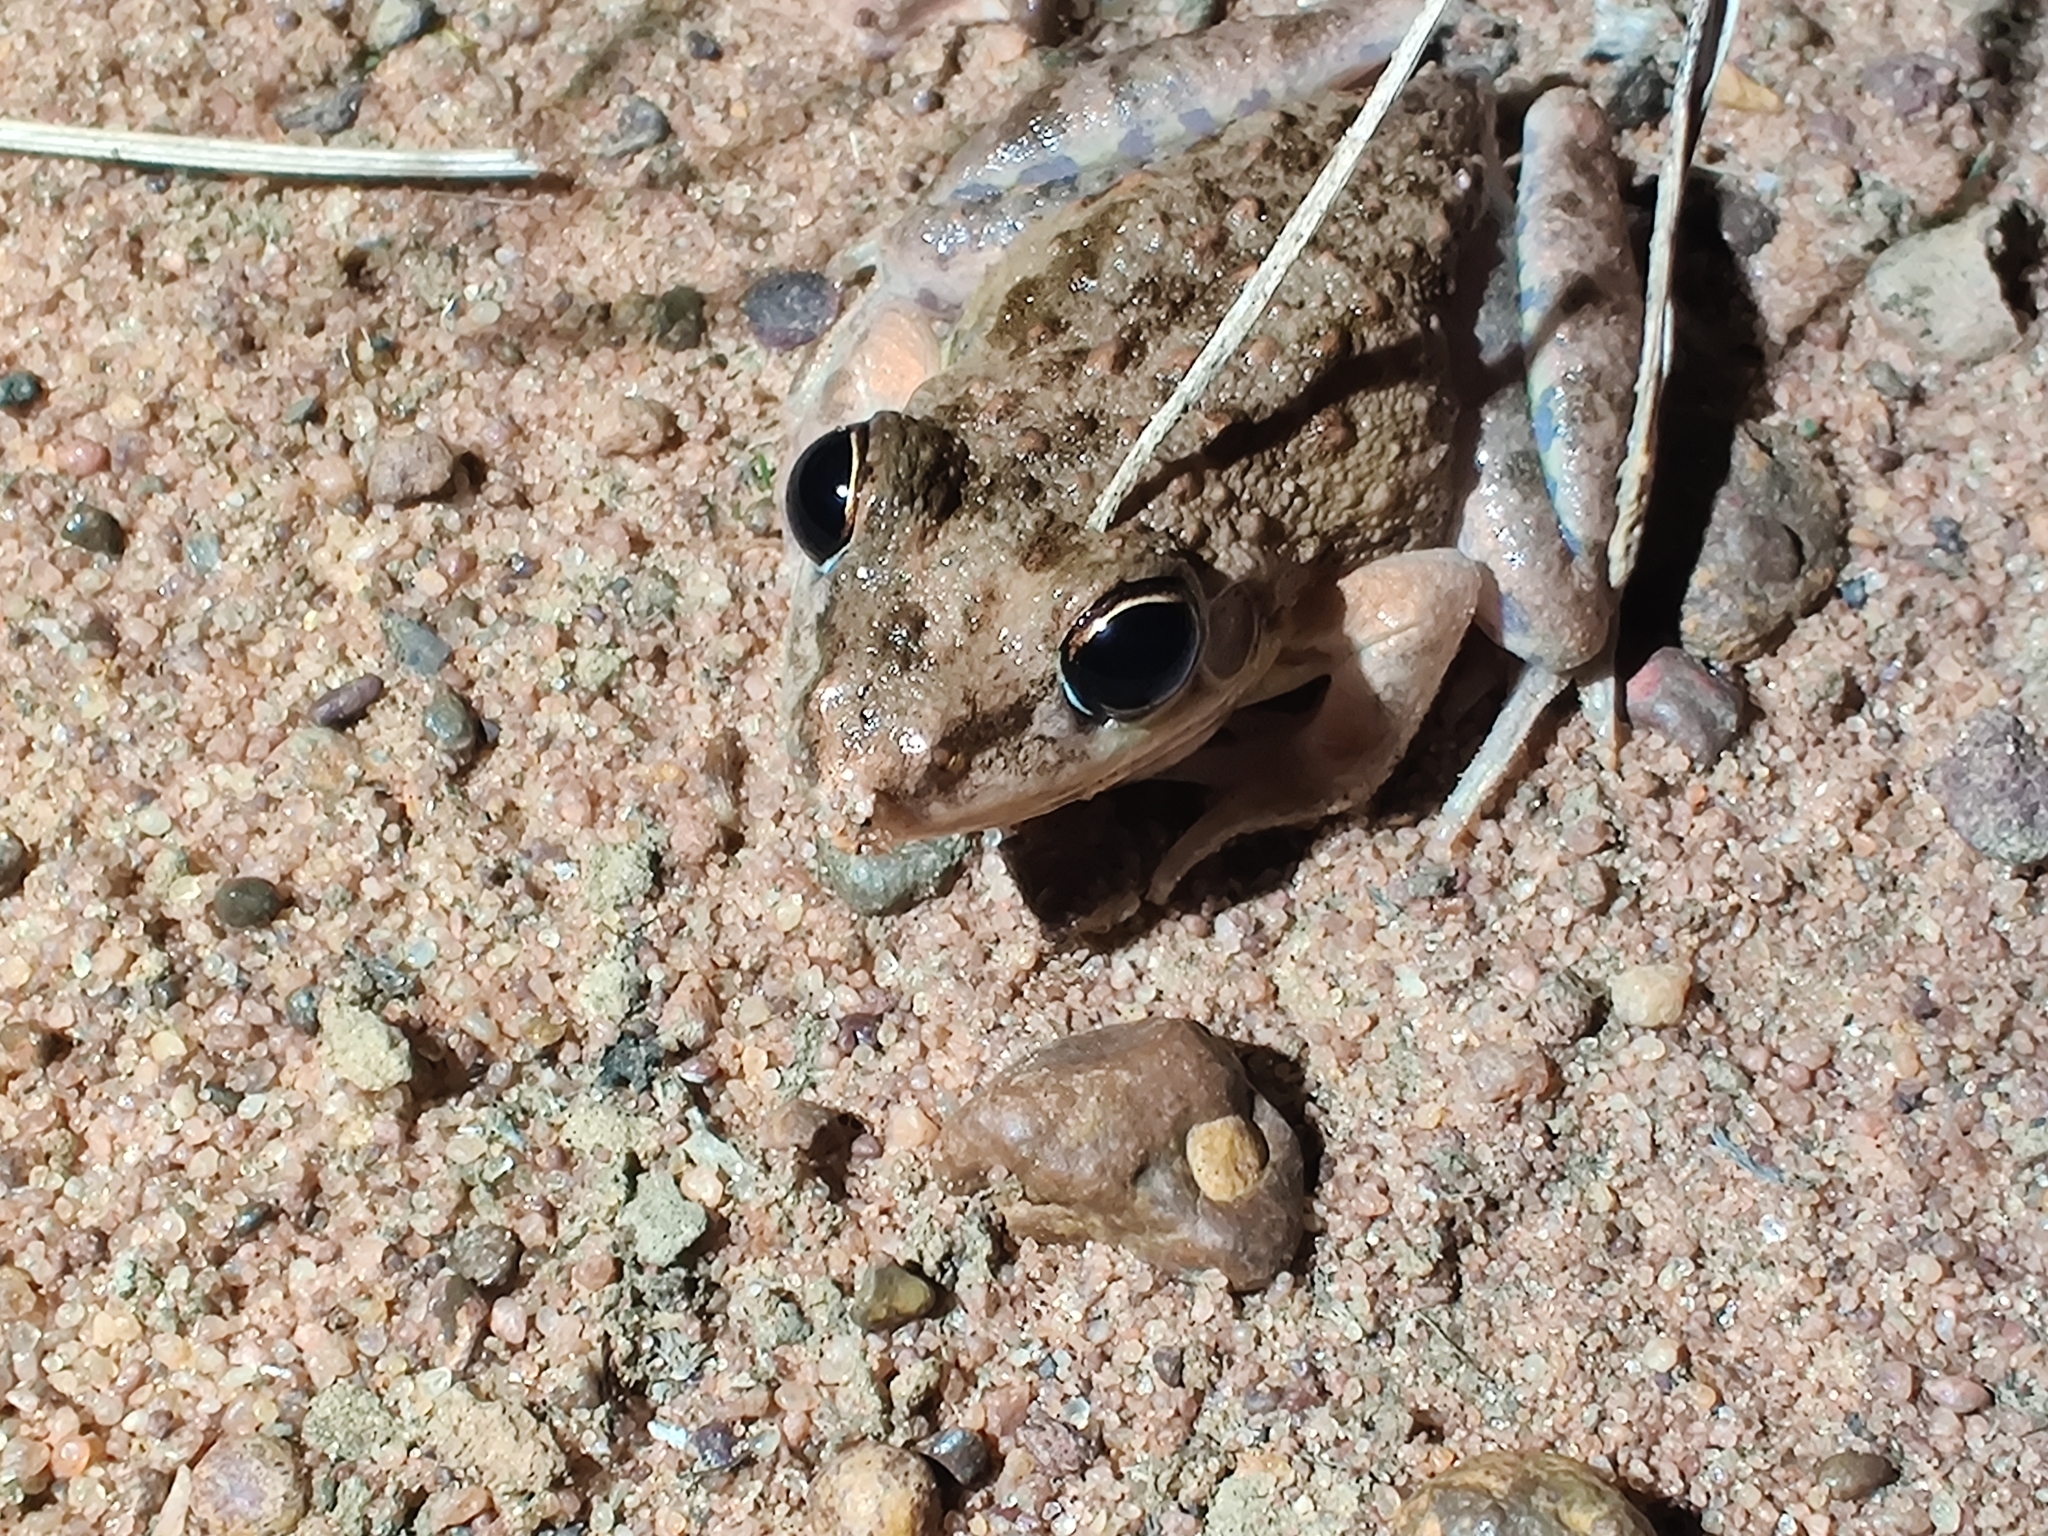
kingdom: Animalia
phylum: Chordata
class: Amphibia
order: Anura
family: Pelodryadidae
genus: Litoria
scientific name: Litoria inermis
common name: Bumpy rocket frog
